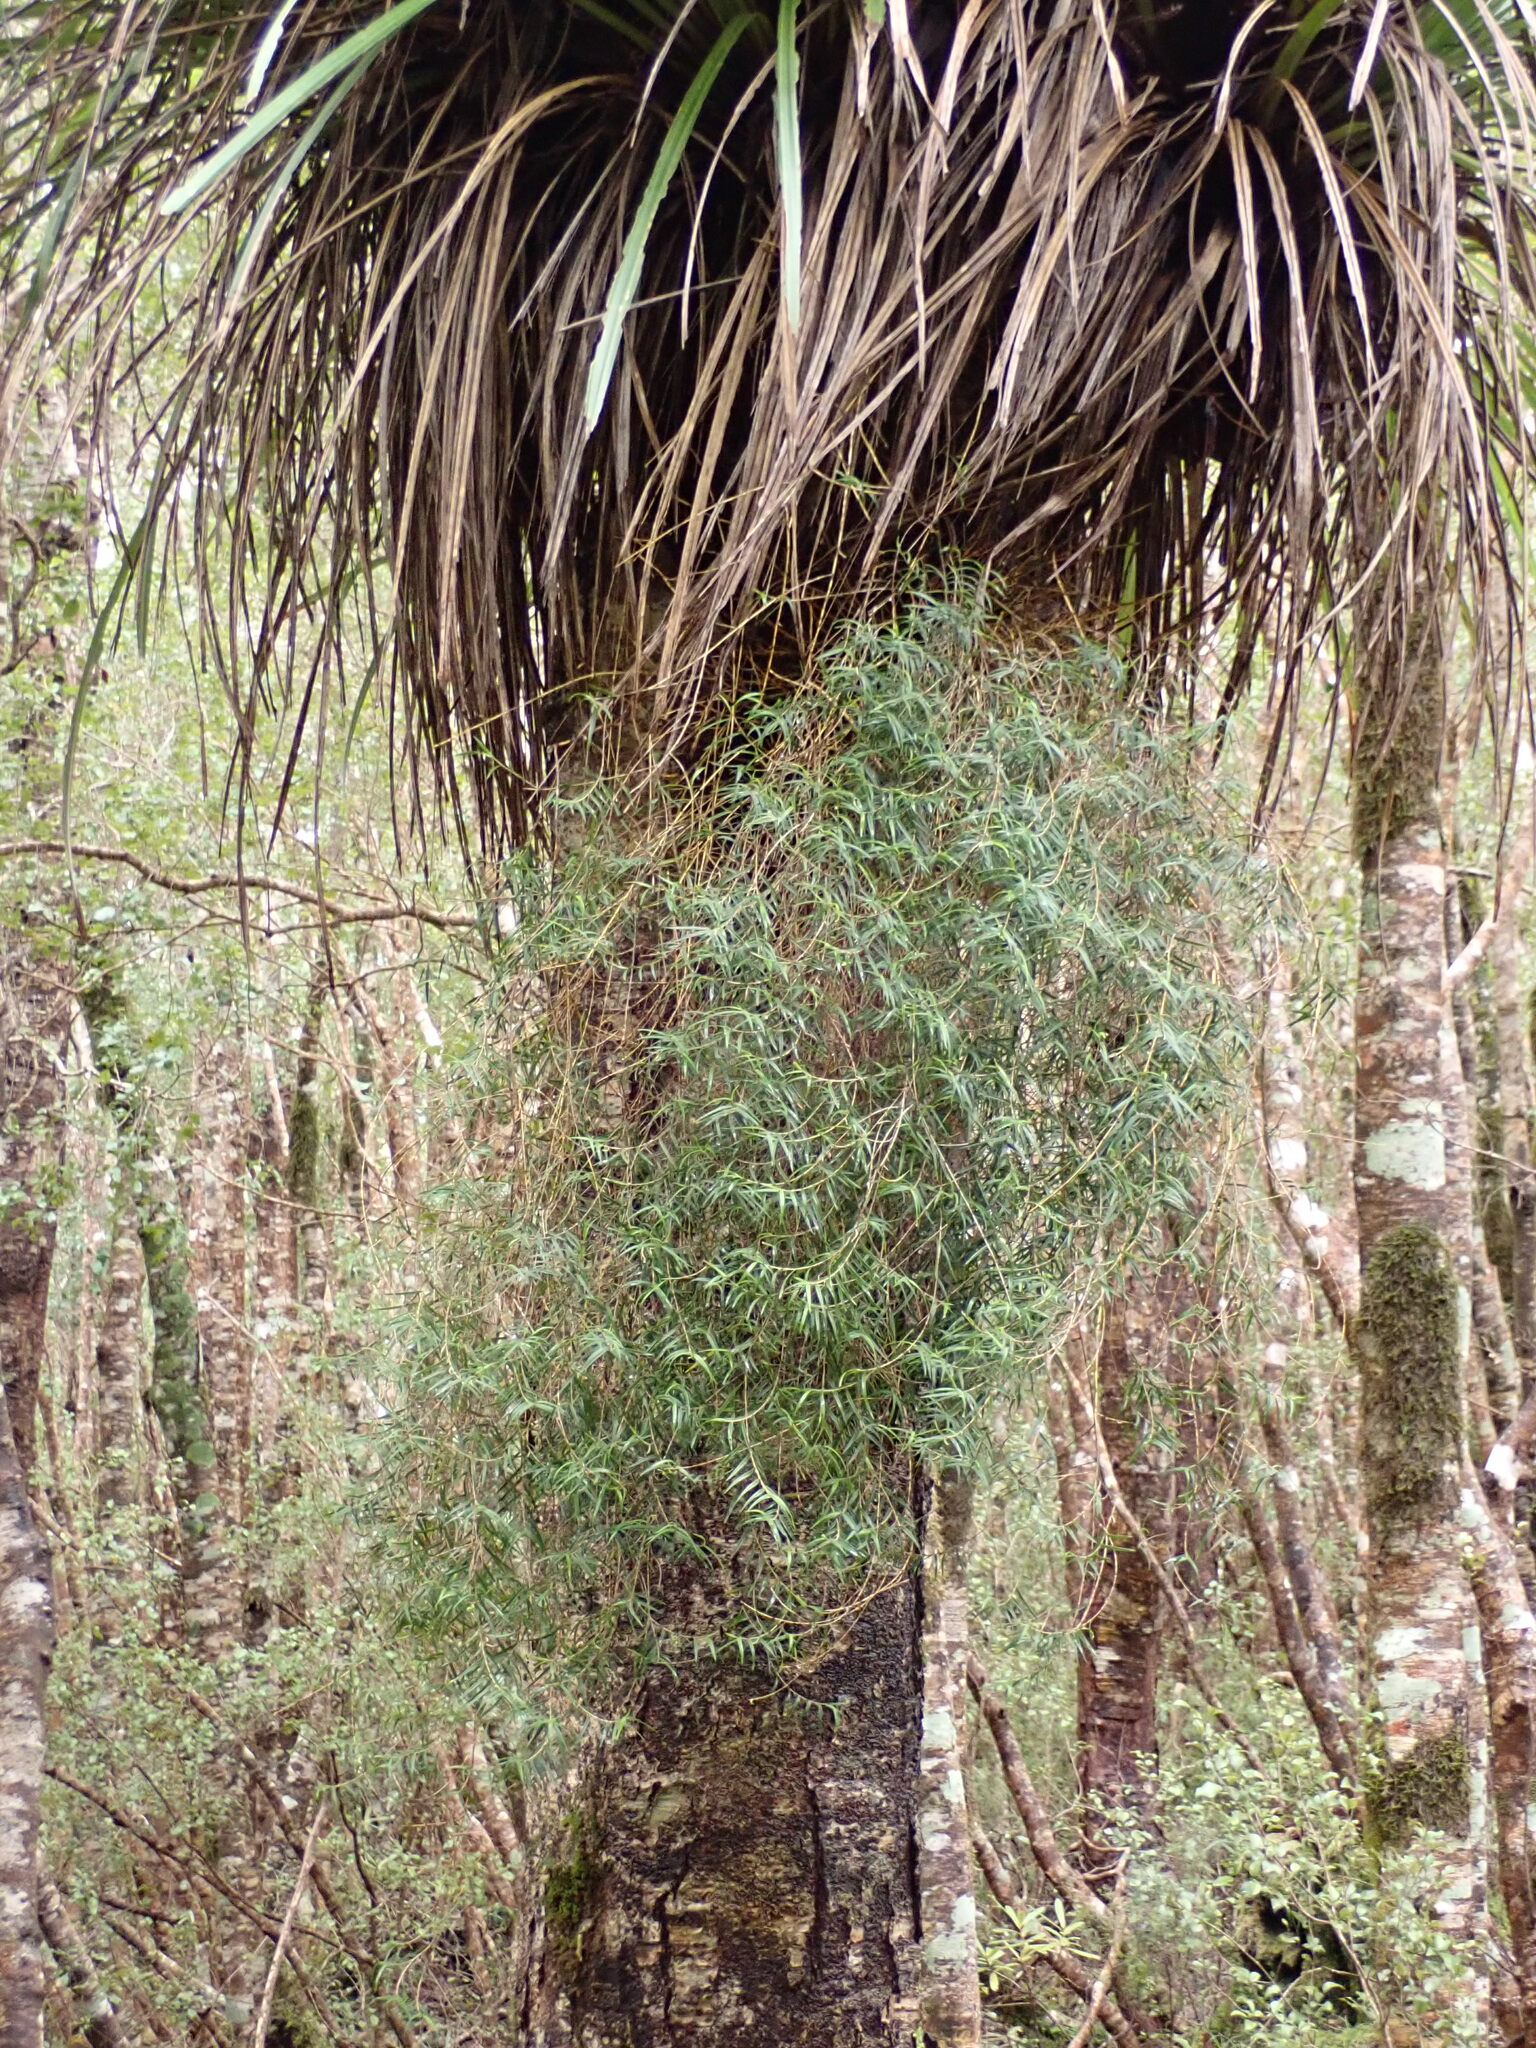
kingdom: Plantae
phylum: Tracheophyta
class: Liliopsida
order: Asparagales
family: Orchidaceae
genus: Dendrobium
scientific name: Dendrobium cunninghamii
